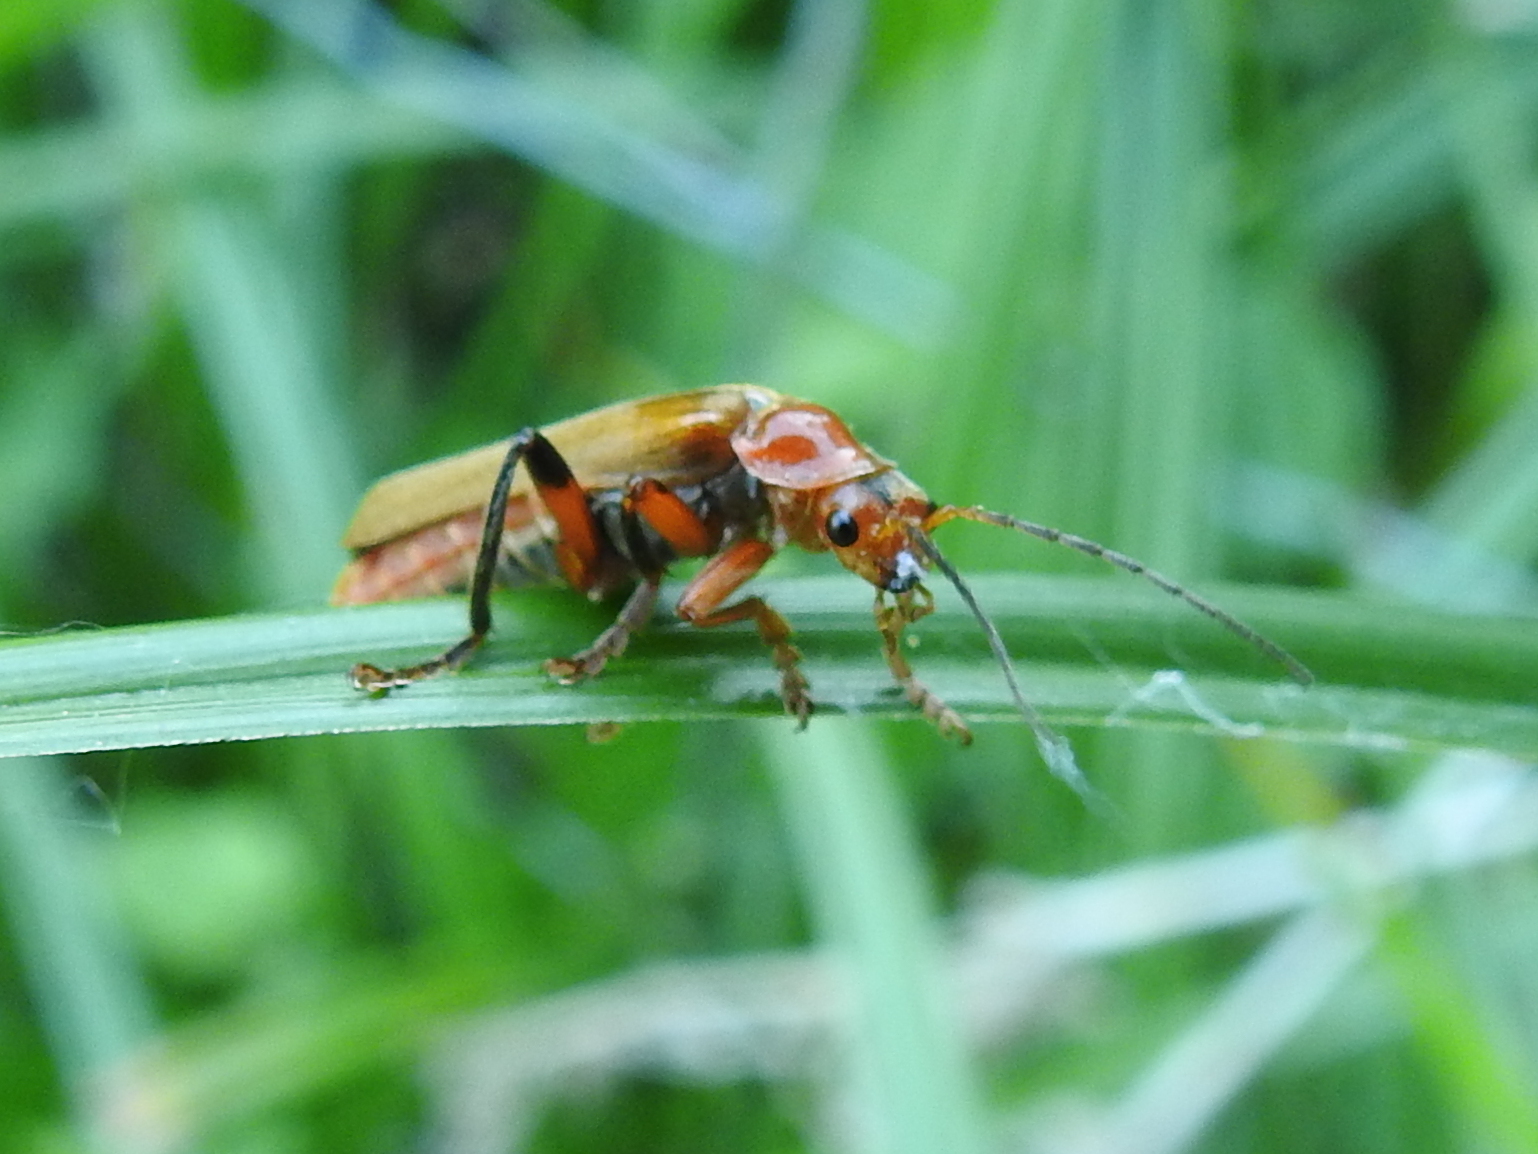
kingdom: Animalia
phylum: Arthropoda
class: Insecta
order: Coleoptera
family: Cantharidae
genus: Cantharis
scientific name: Cantharis livida
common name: Livid soldier beetle
